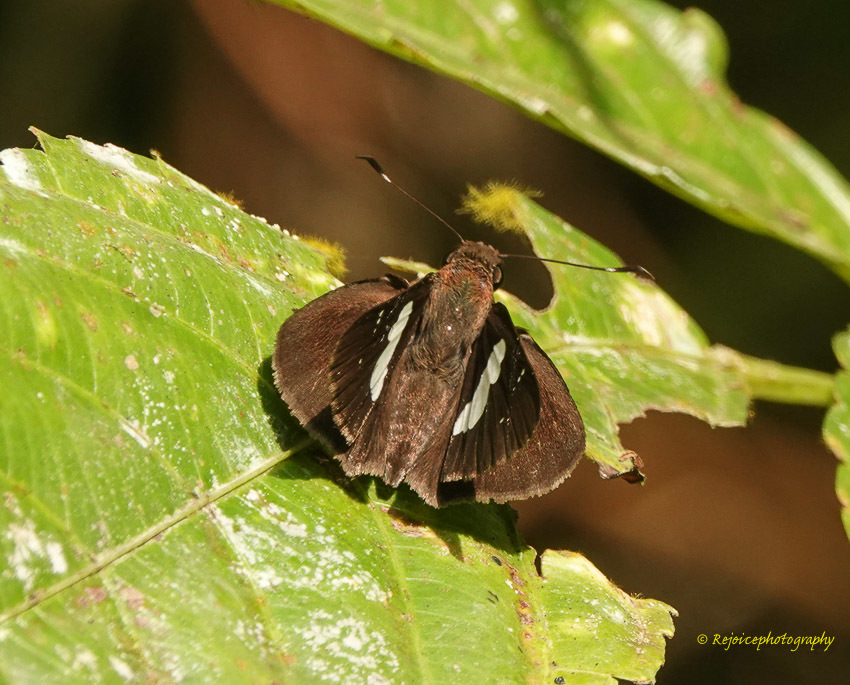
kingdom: Animalia
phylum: Arthropoda
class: Insecta
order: Lepidoptera
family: Hesperiidae
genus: Notocrypta
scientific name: Notocrypta curvifascia
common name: Restricted demon
